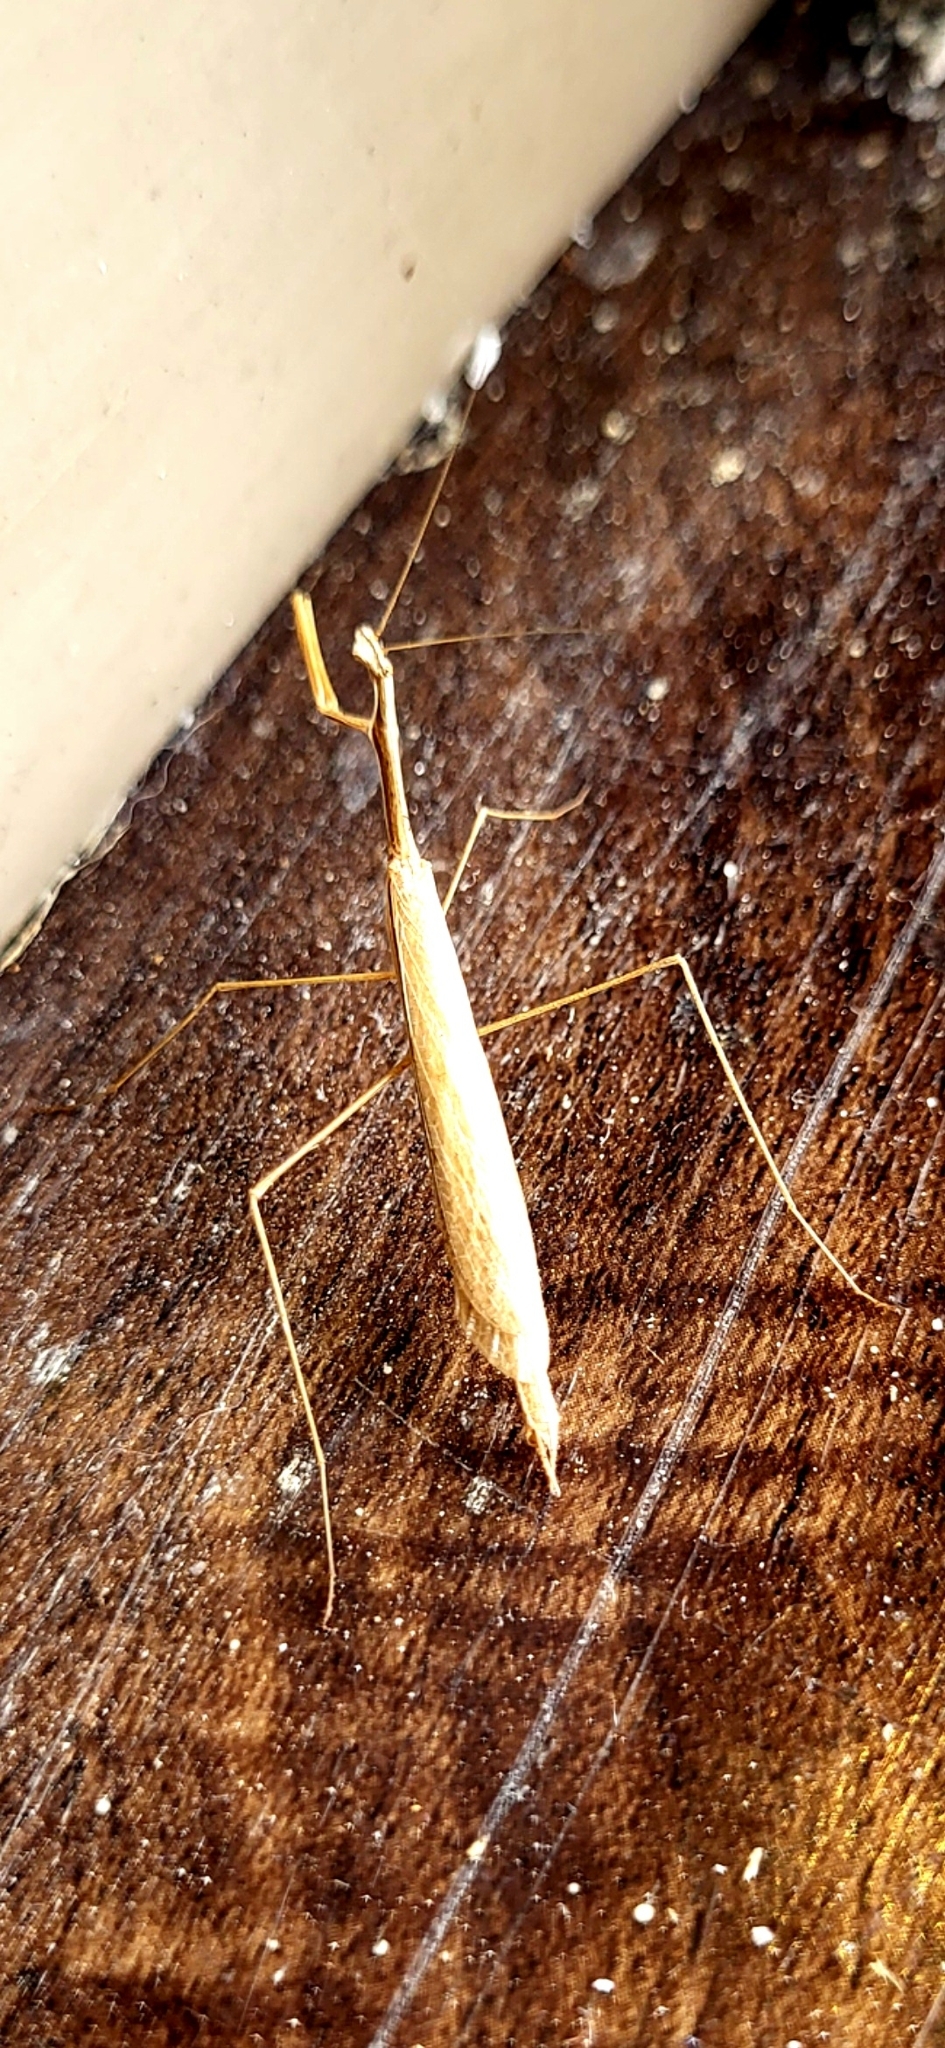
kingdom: Animalia
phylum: Arthropoda
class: Insecta
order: Mantodea
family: Thespidae
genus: Bistanta
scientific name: Bistanta campestris
